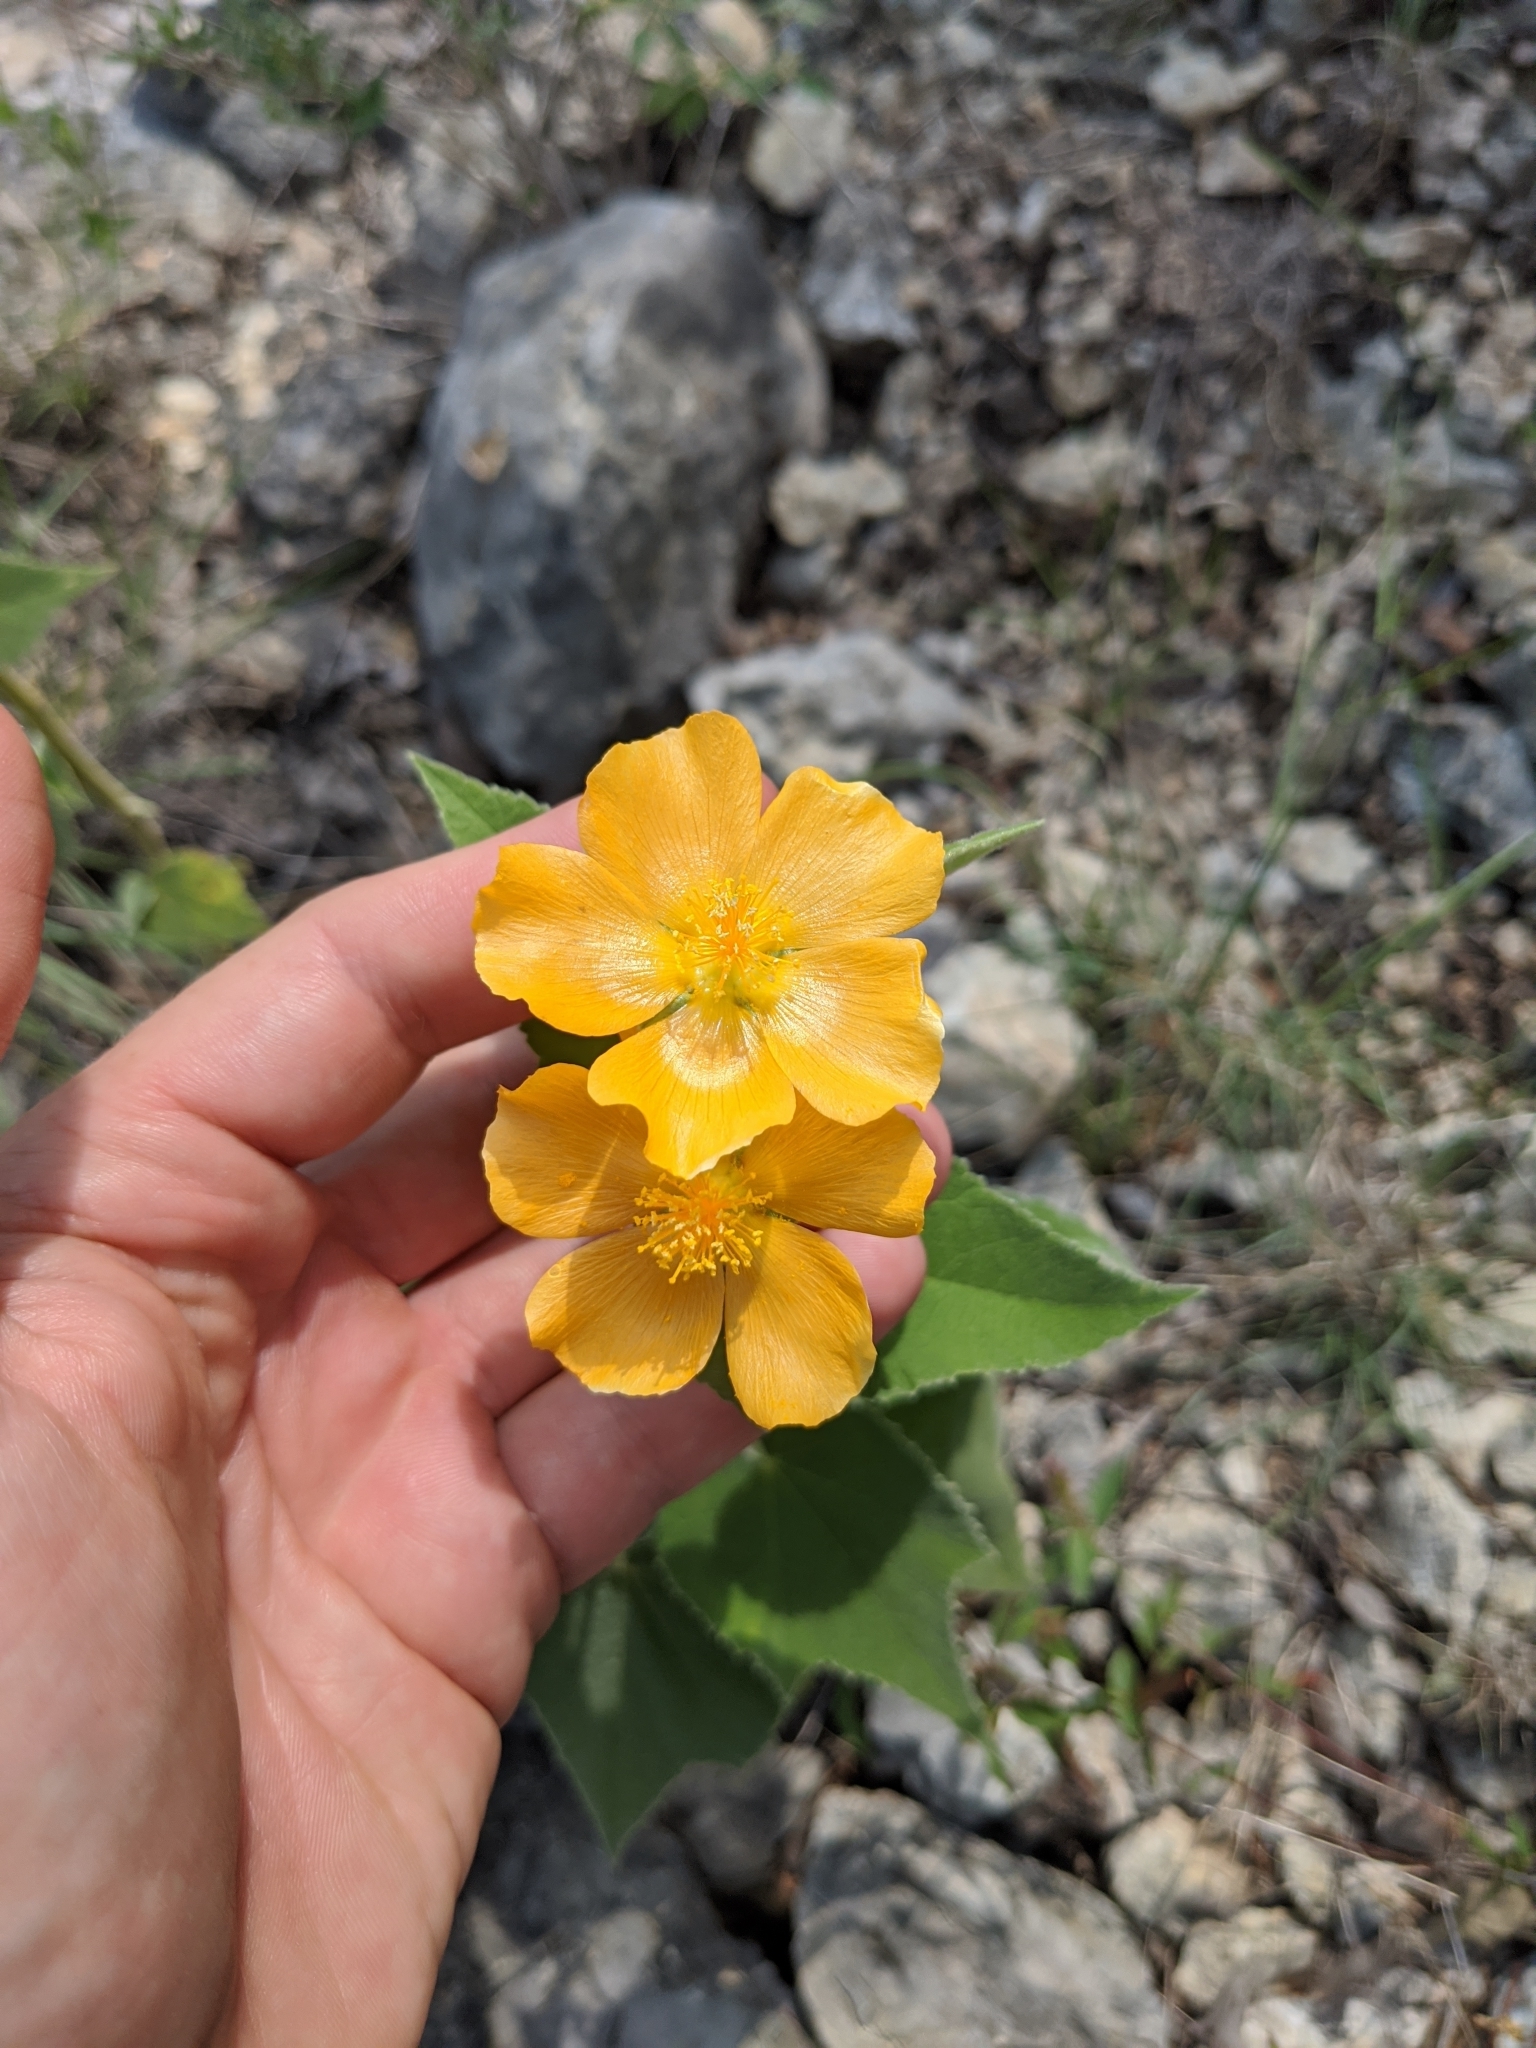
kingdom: Plantae
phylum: Tracheophyta
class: Magnoliopsida
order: Malvales
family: Malvaceae
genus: Allowissadula
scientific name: Allowissadula holosericea
